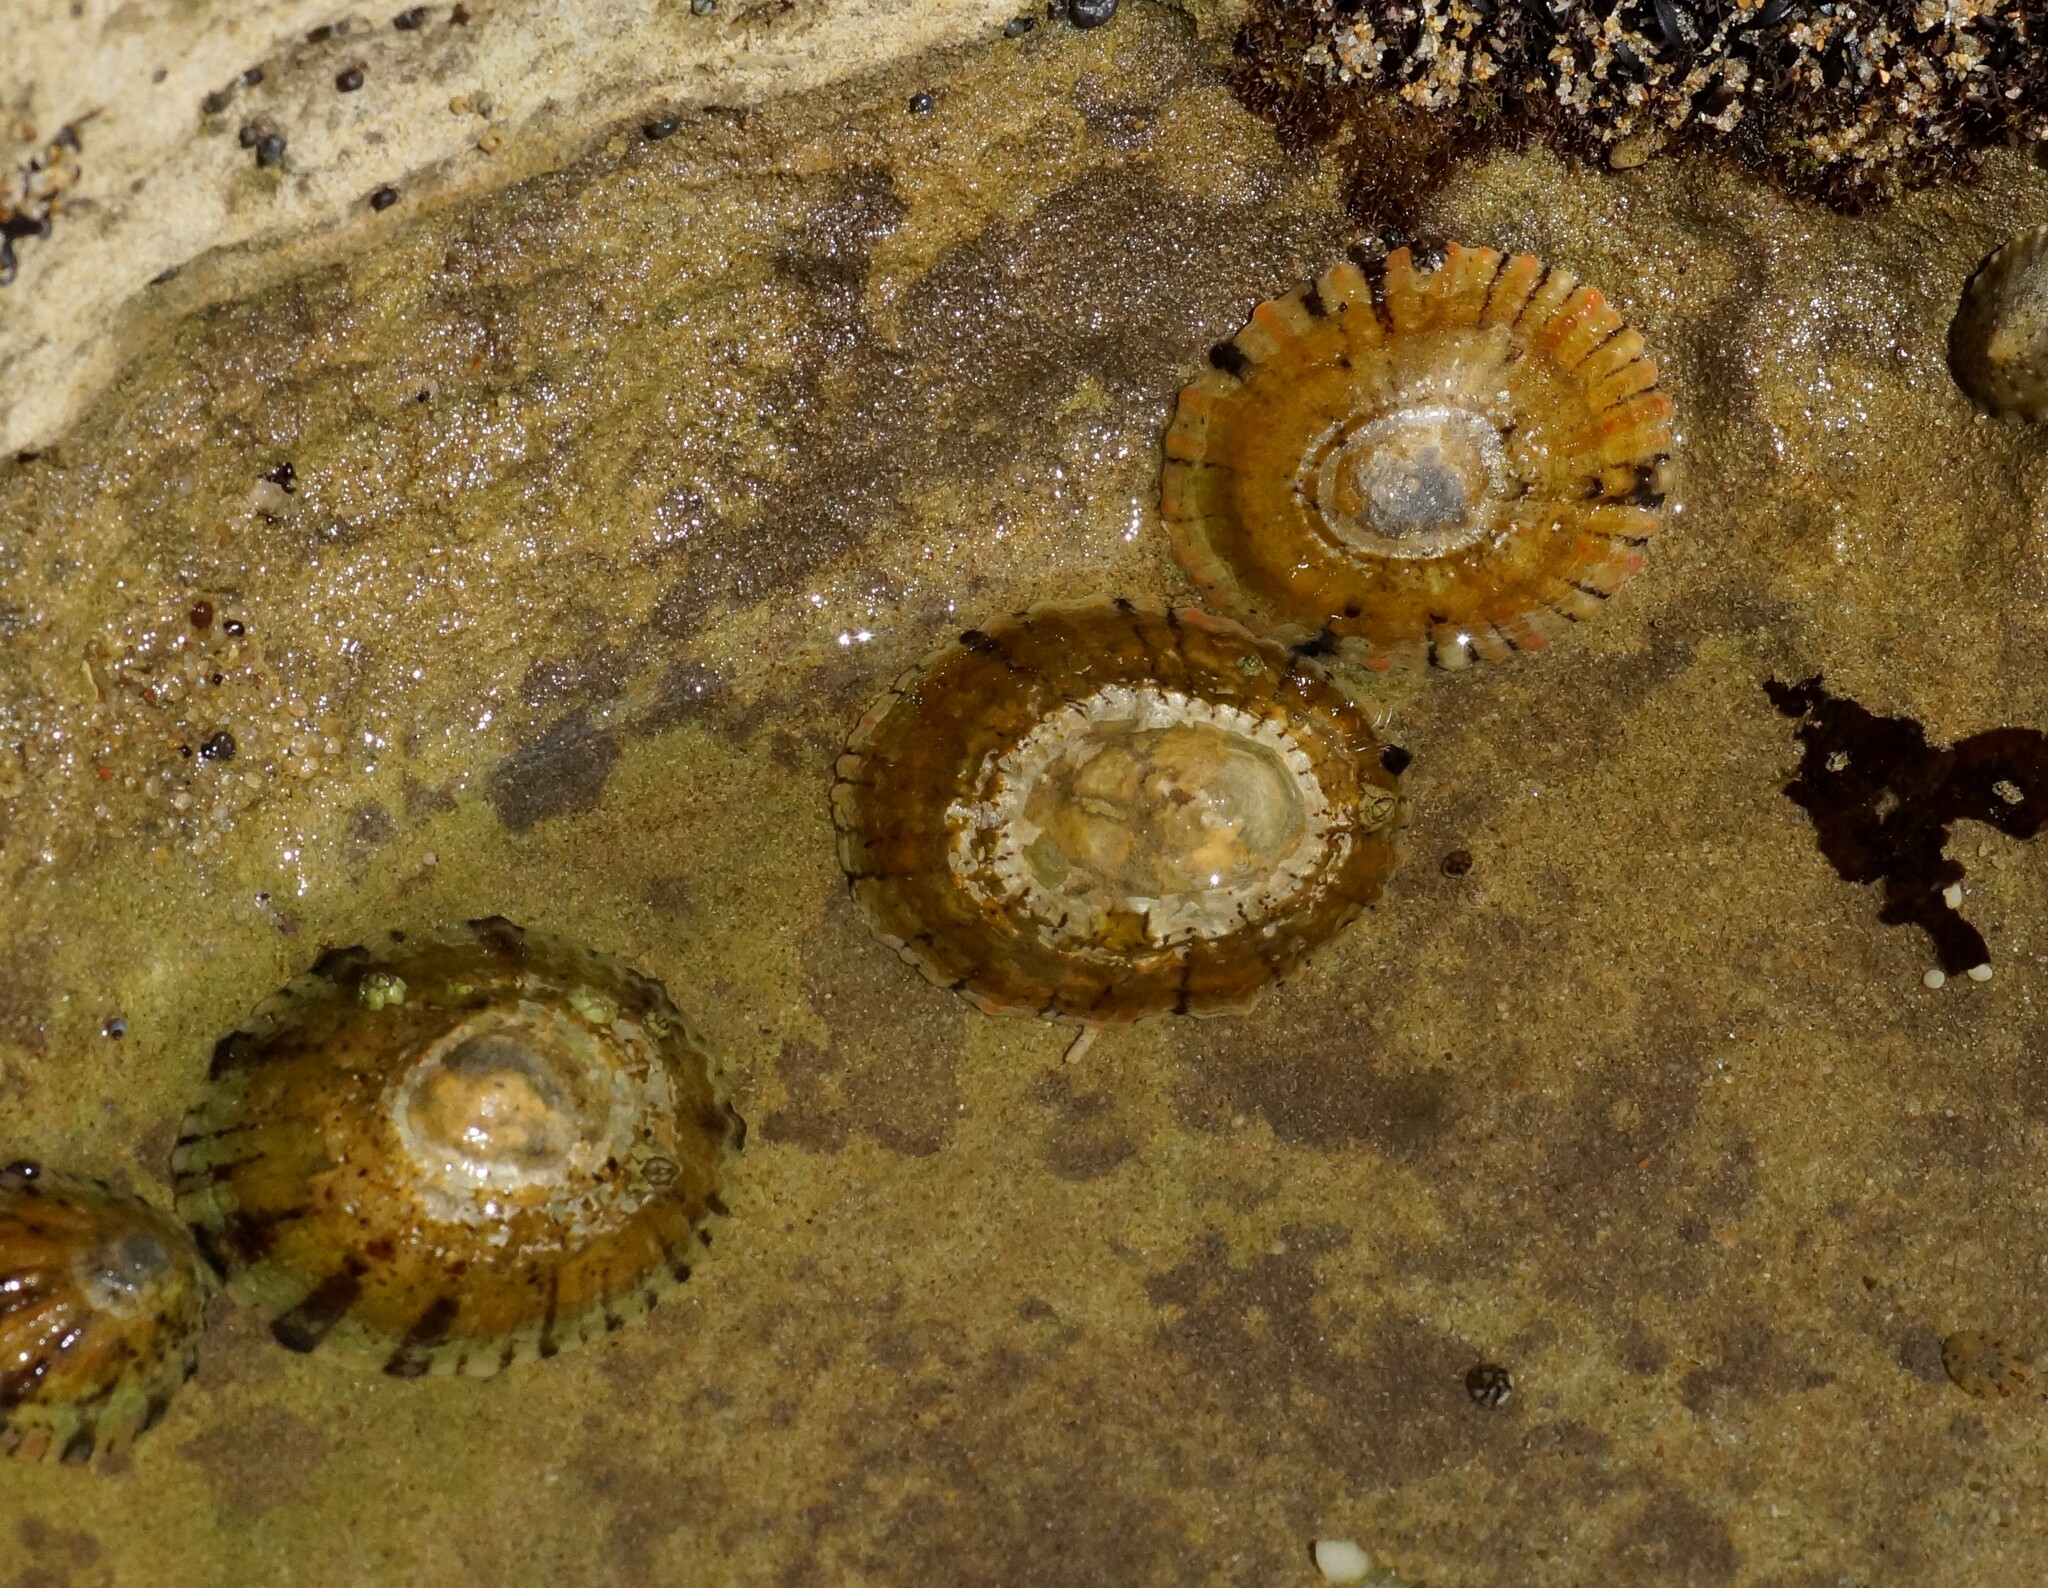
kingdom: Animalia
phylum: Mollusca
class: Gastropoda
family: Nacellidae
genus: Cellana
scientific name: Cellana tramoserica
